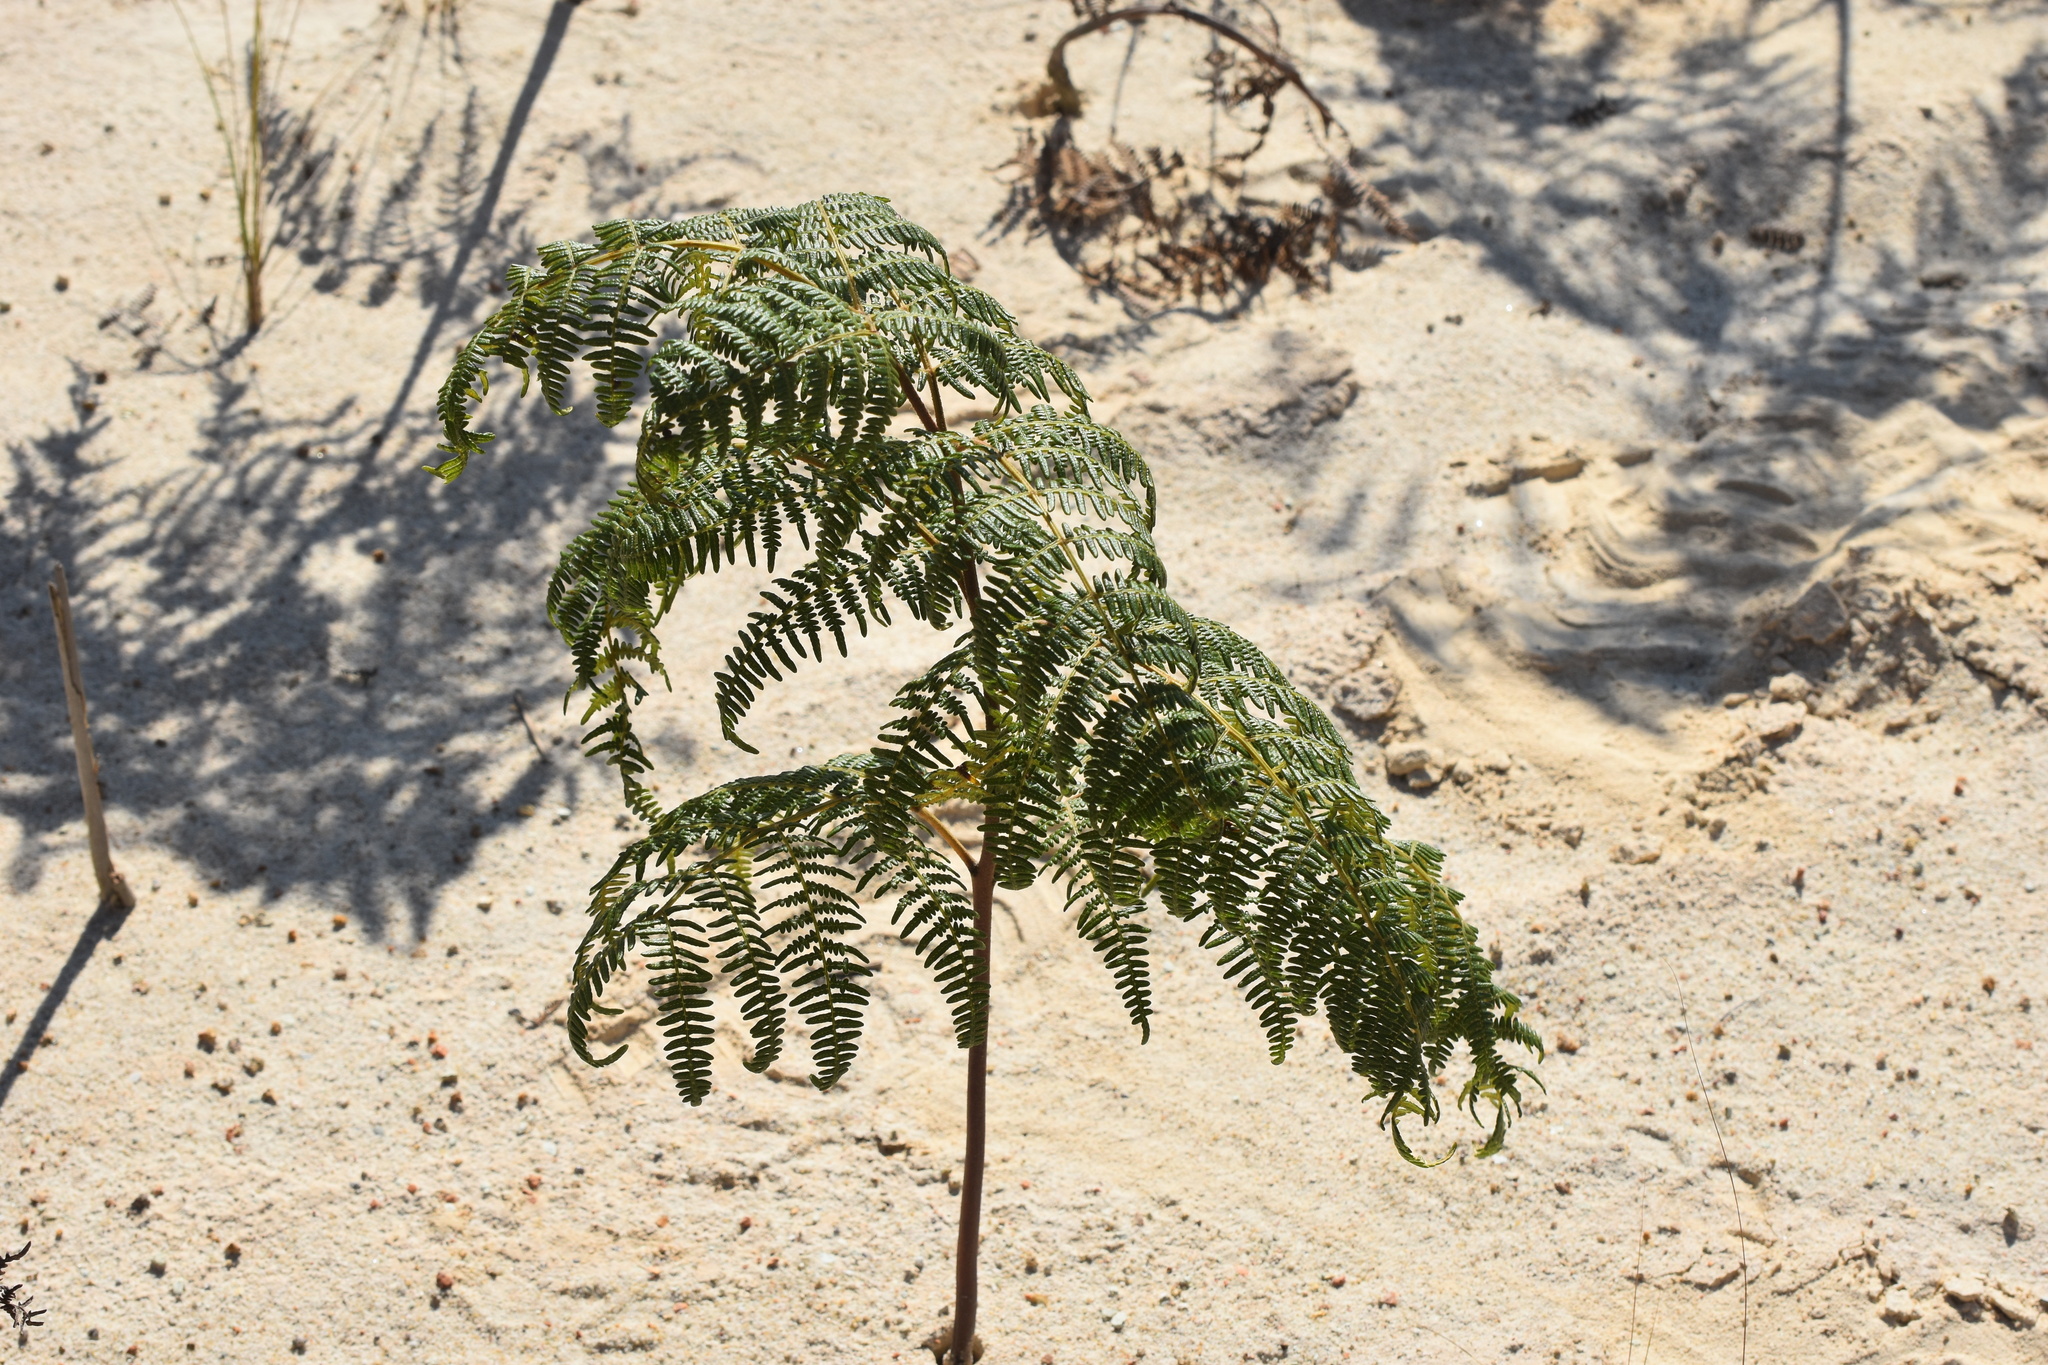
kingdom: Plantae
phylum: Tracheophyta
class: Polypodiopsida
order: Polypodiales
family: Dennstaedtiaceae
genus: Pteridium
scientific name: Pteridium aquilinum
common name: Bracken
